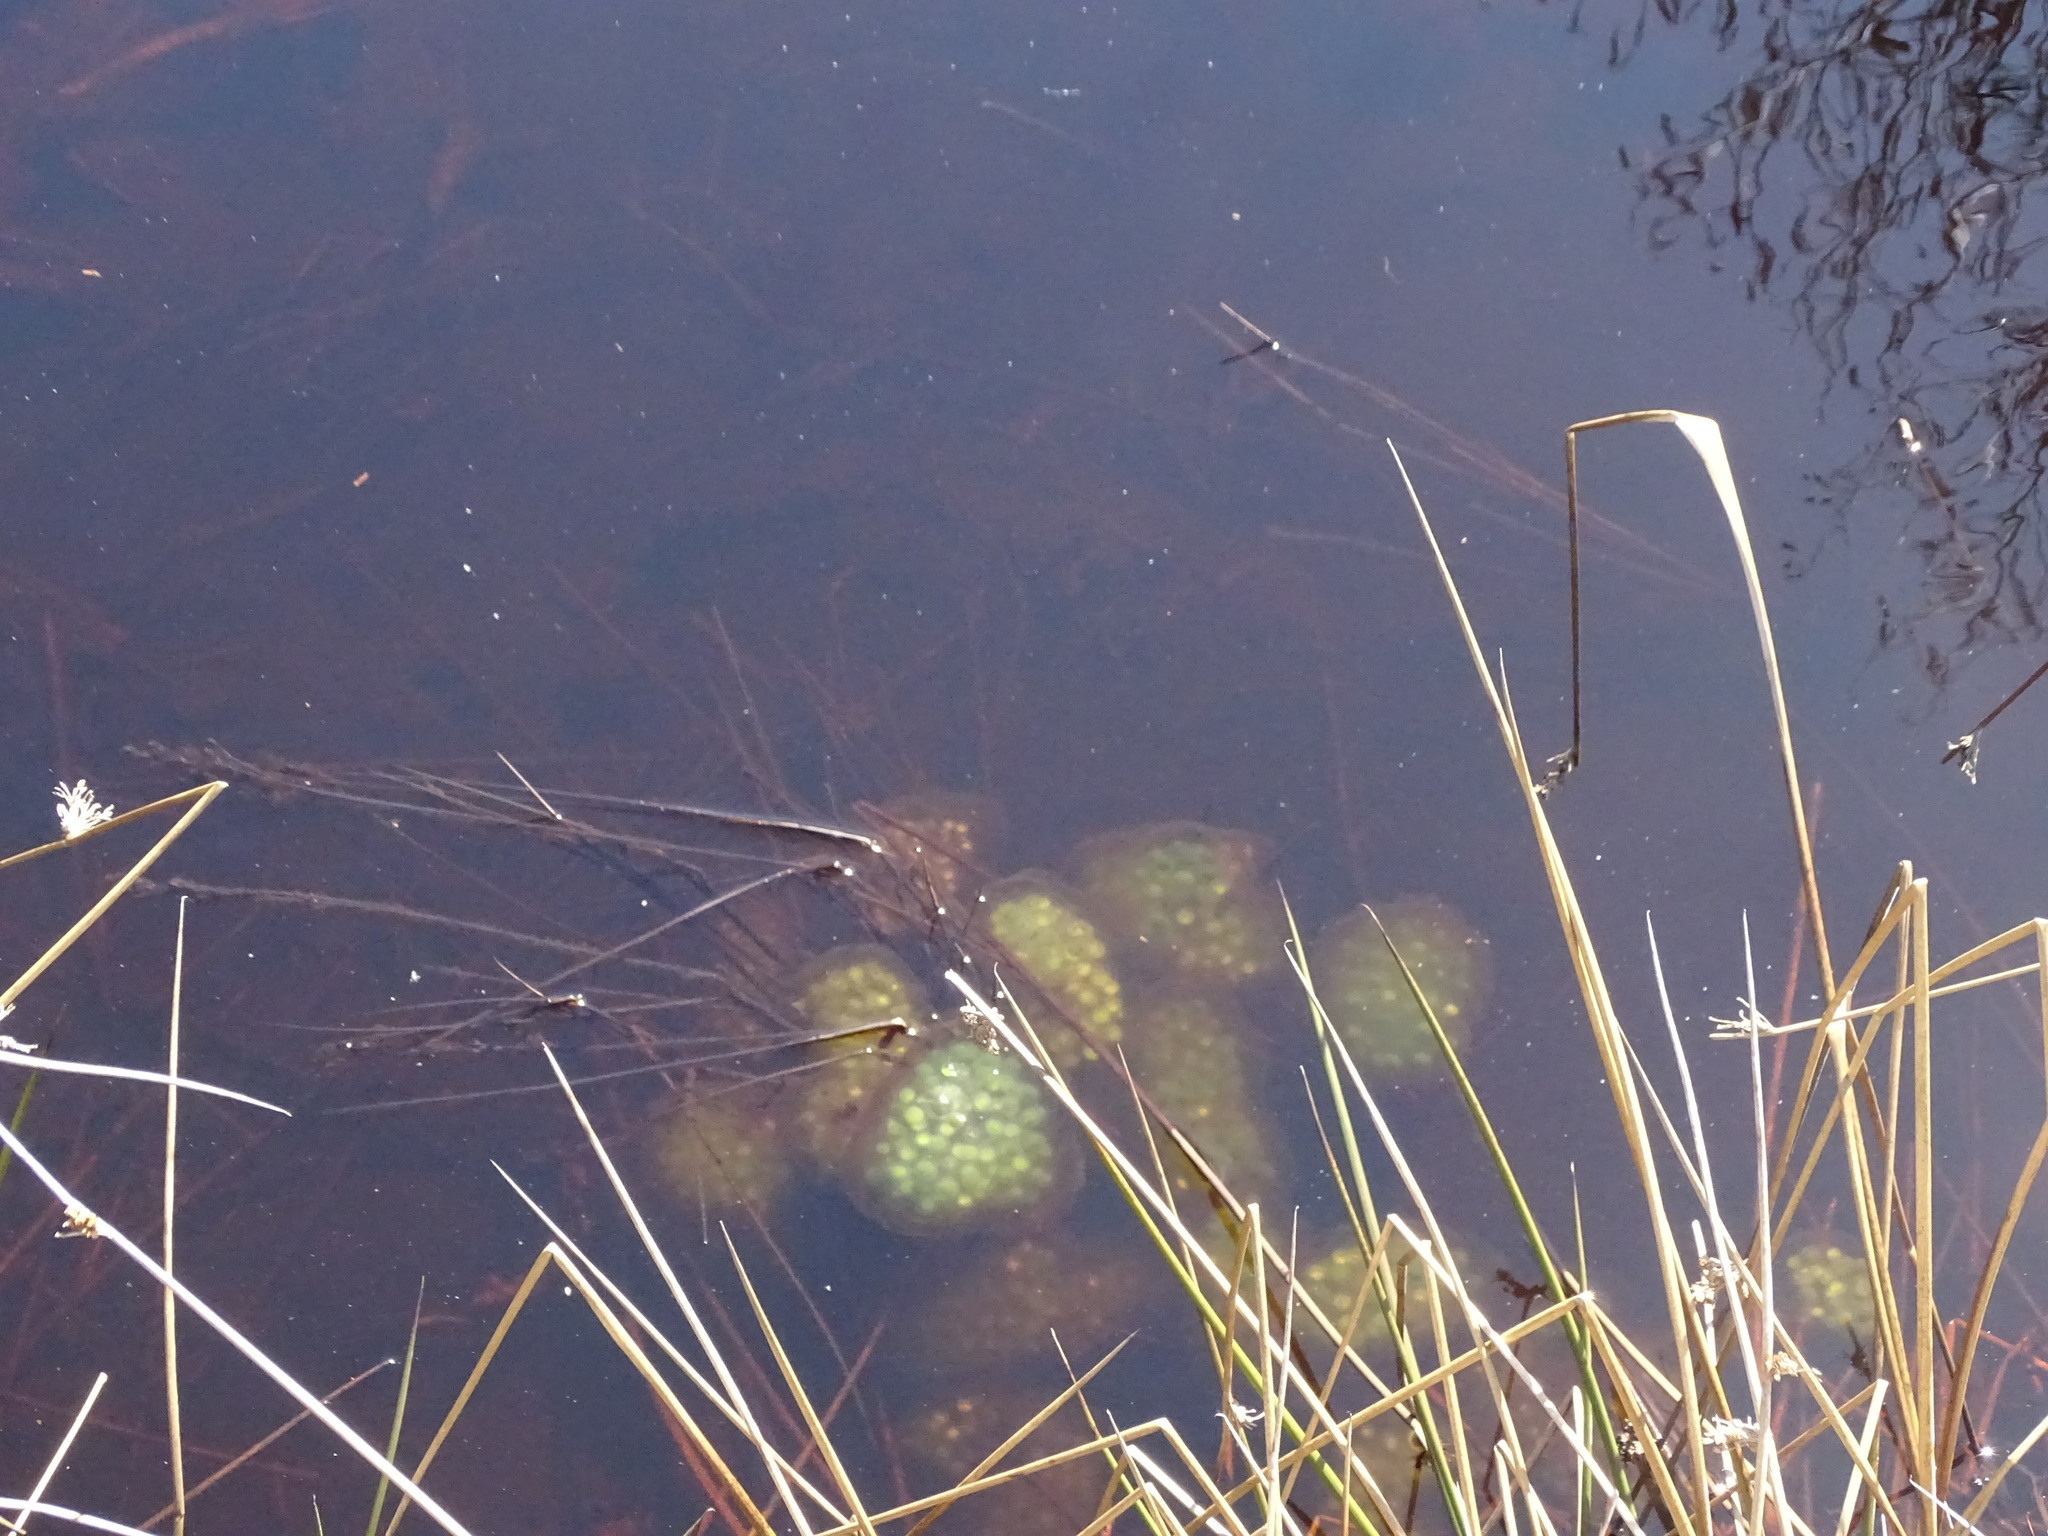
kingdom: Animalia
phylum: Chordata
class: Amphibia
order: Caudata
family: Ambystomatidae
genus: Ambystoma
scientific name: Ambystoma maculatum
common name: Spotted salamander
